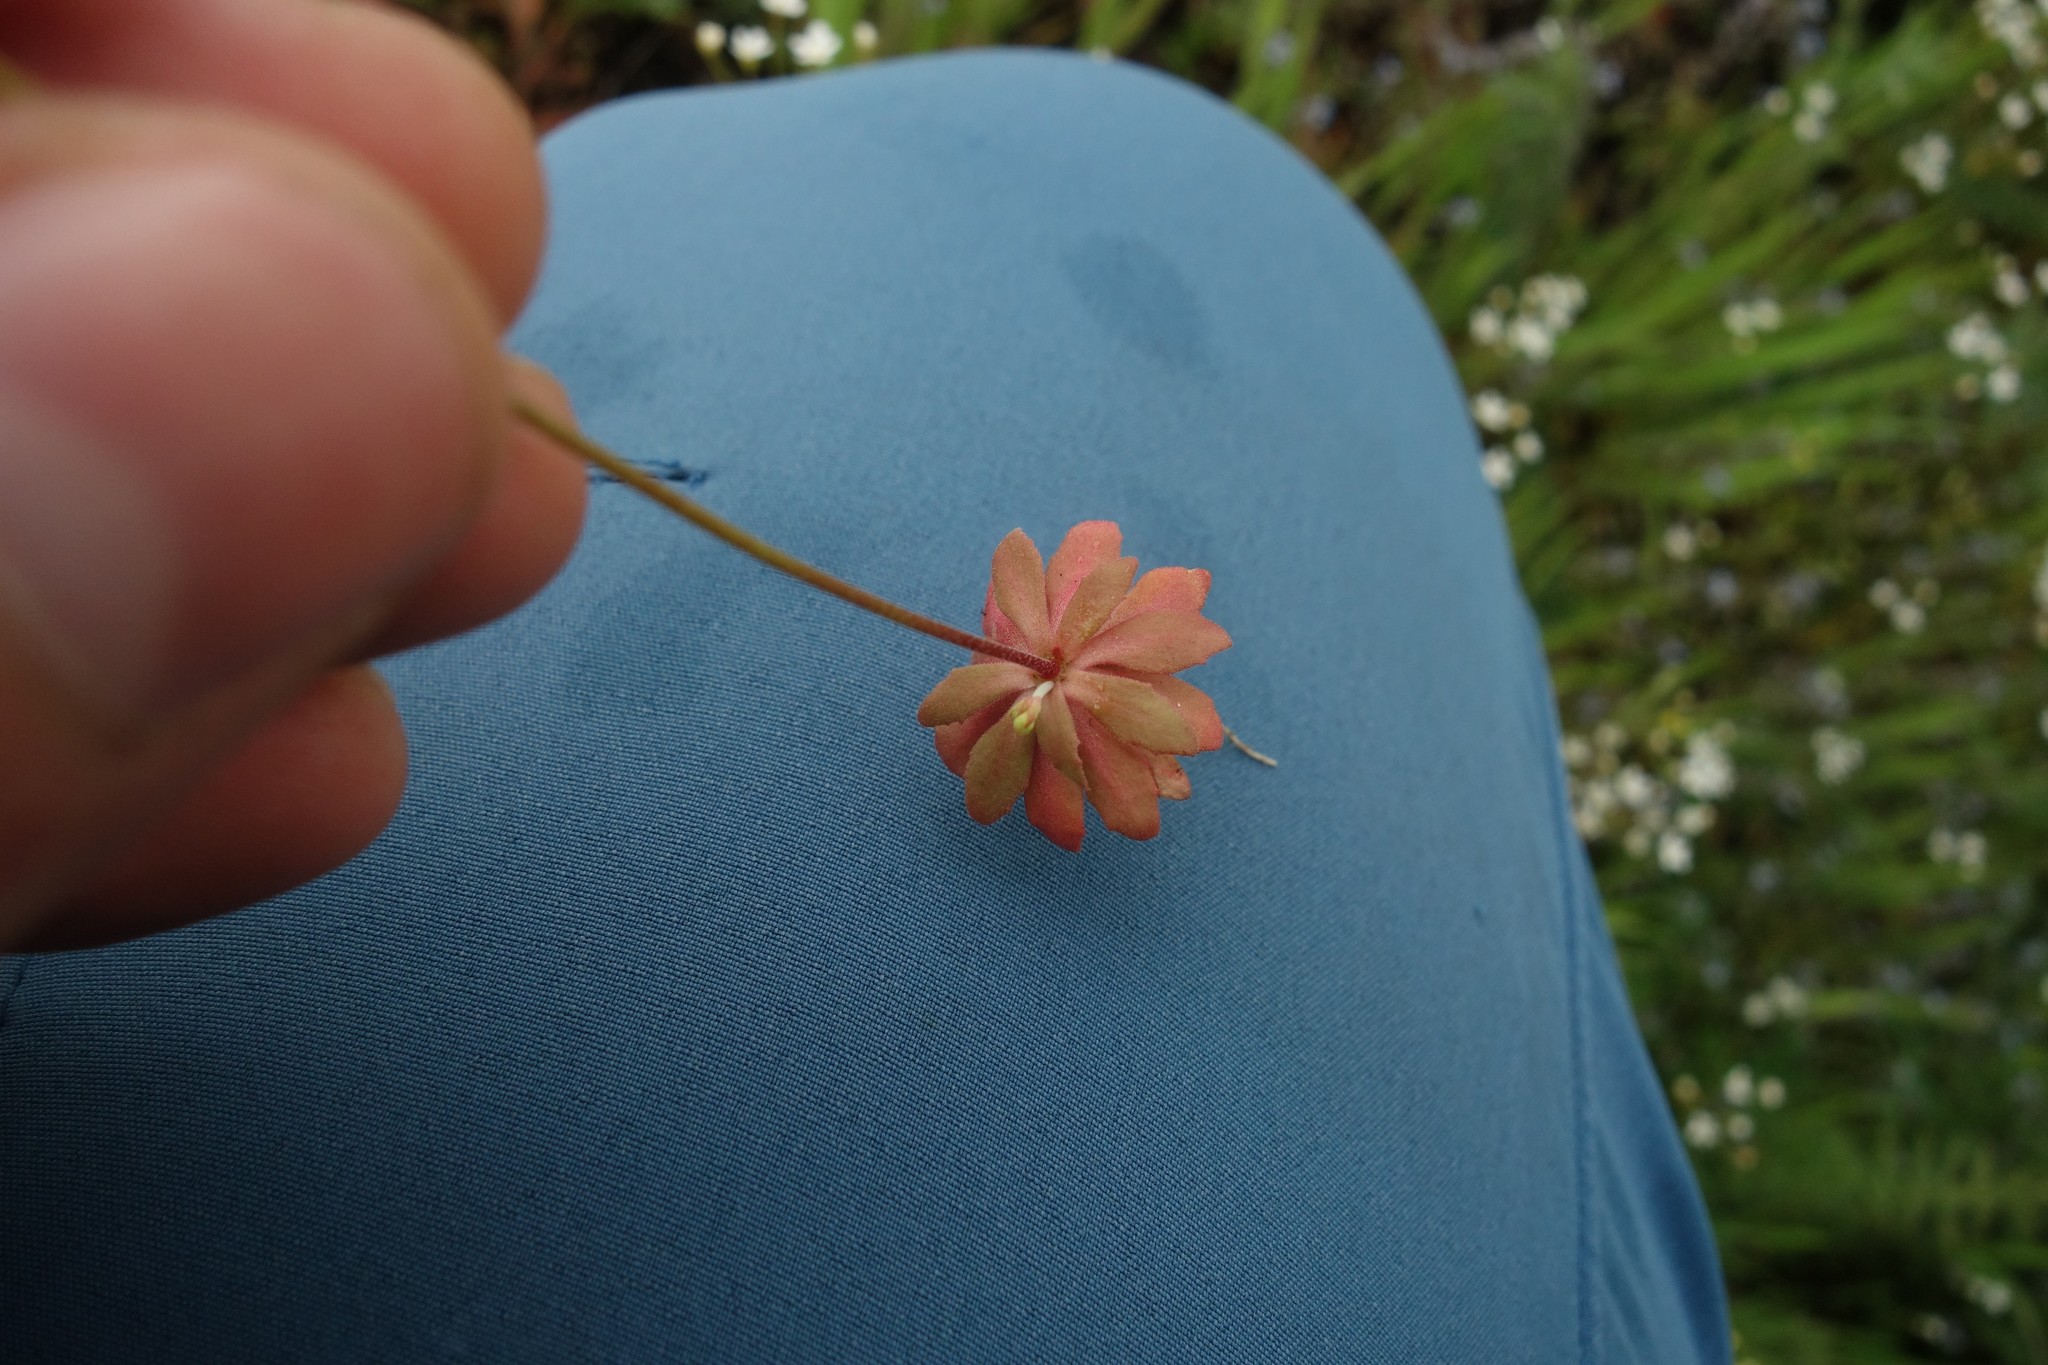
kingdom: Plantae
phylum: Tracheophyta
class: Magnoliopsida
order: Ericales
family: Primulaceae
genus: Androsace
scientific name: Androsace septentrionalis
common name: Hairy northern fairy-candelabra
